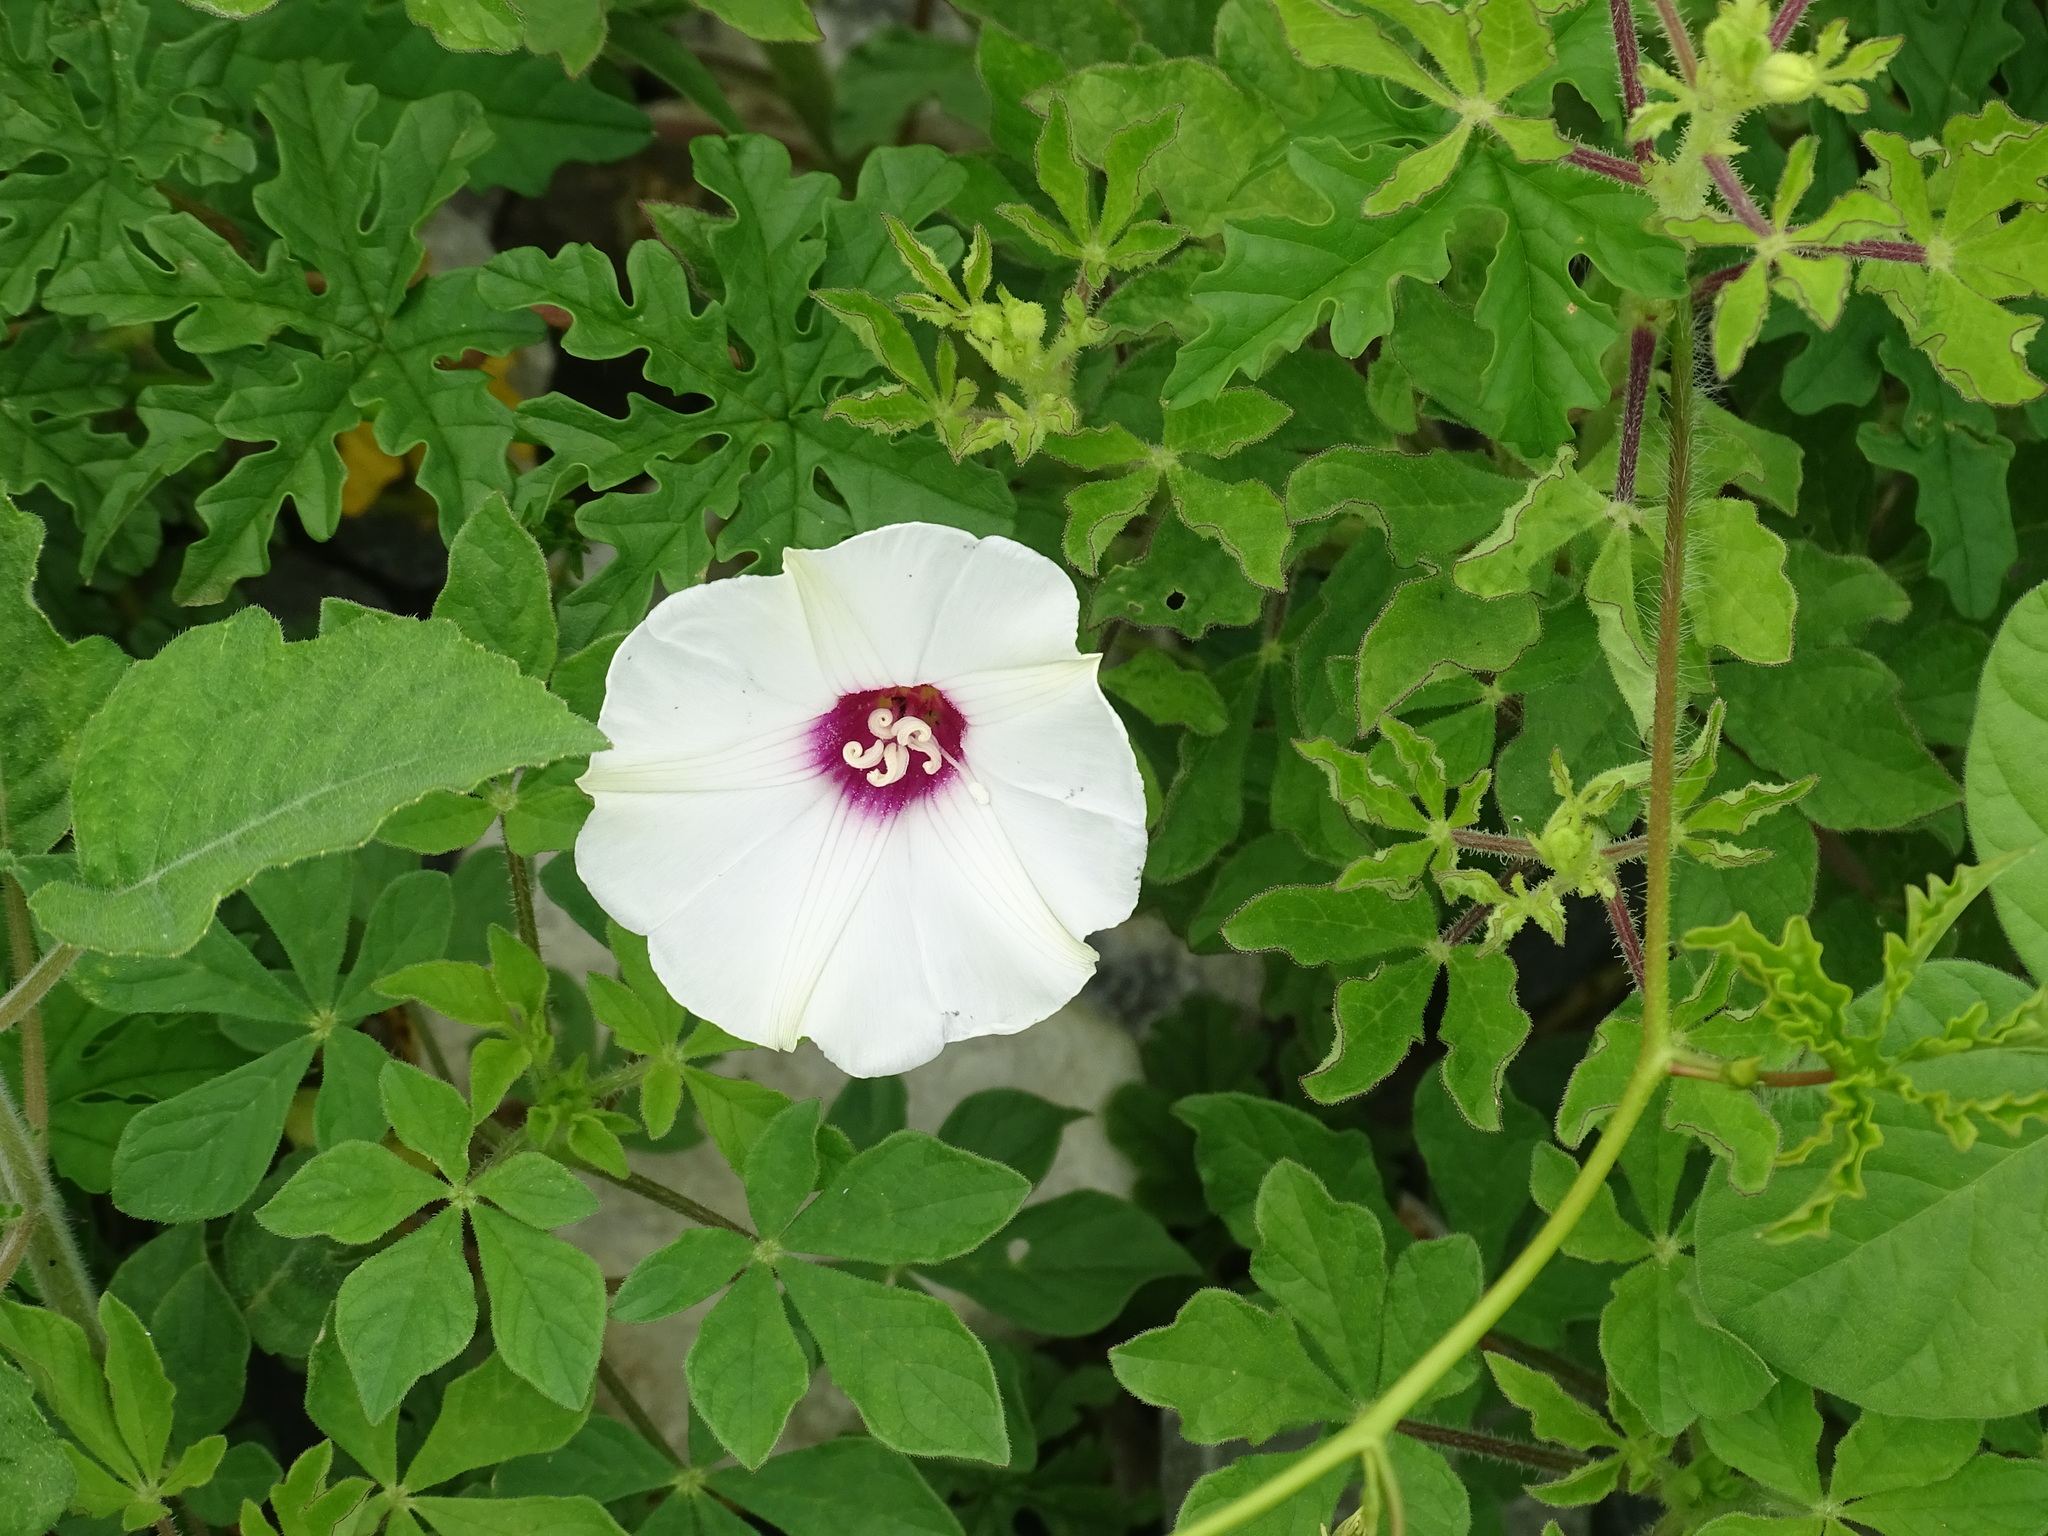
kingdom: Plantae
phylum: Tracheophyta
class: Magnoliopsida
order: Solanales
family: Convolvulaceae
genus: Distimake
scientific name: Distimake dissectus
